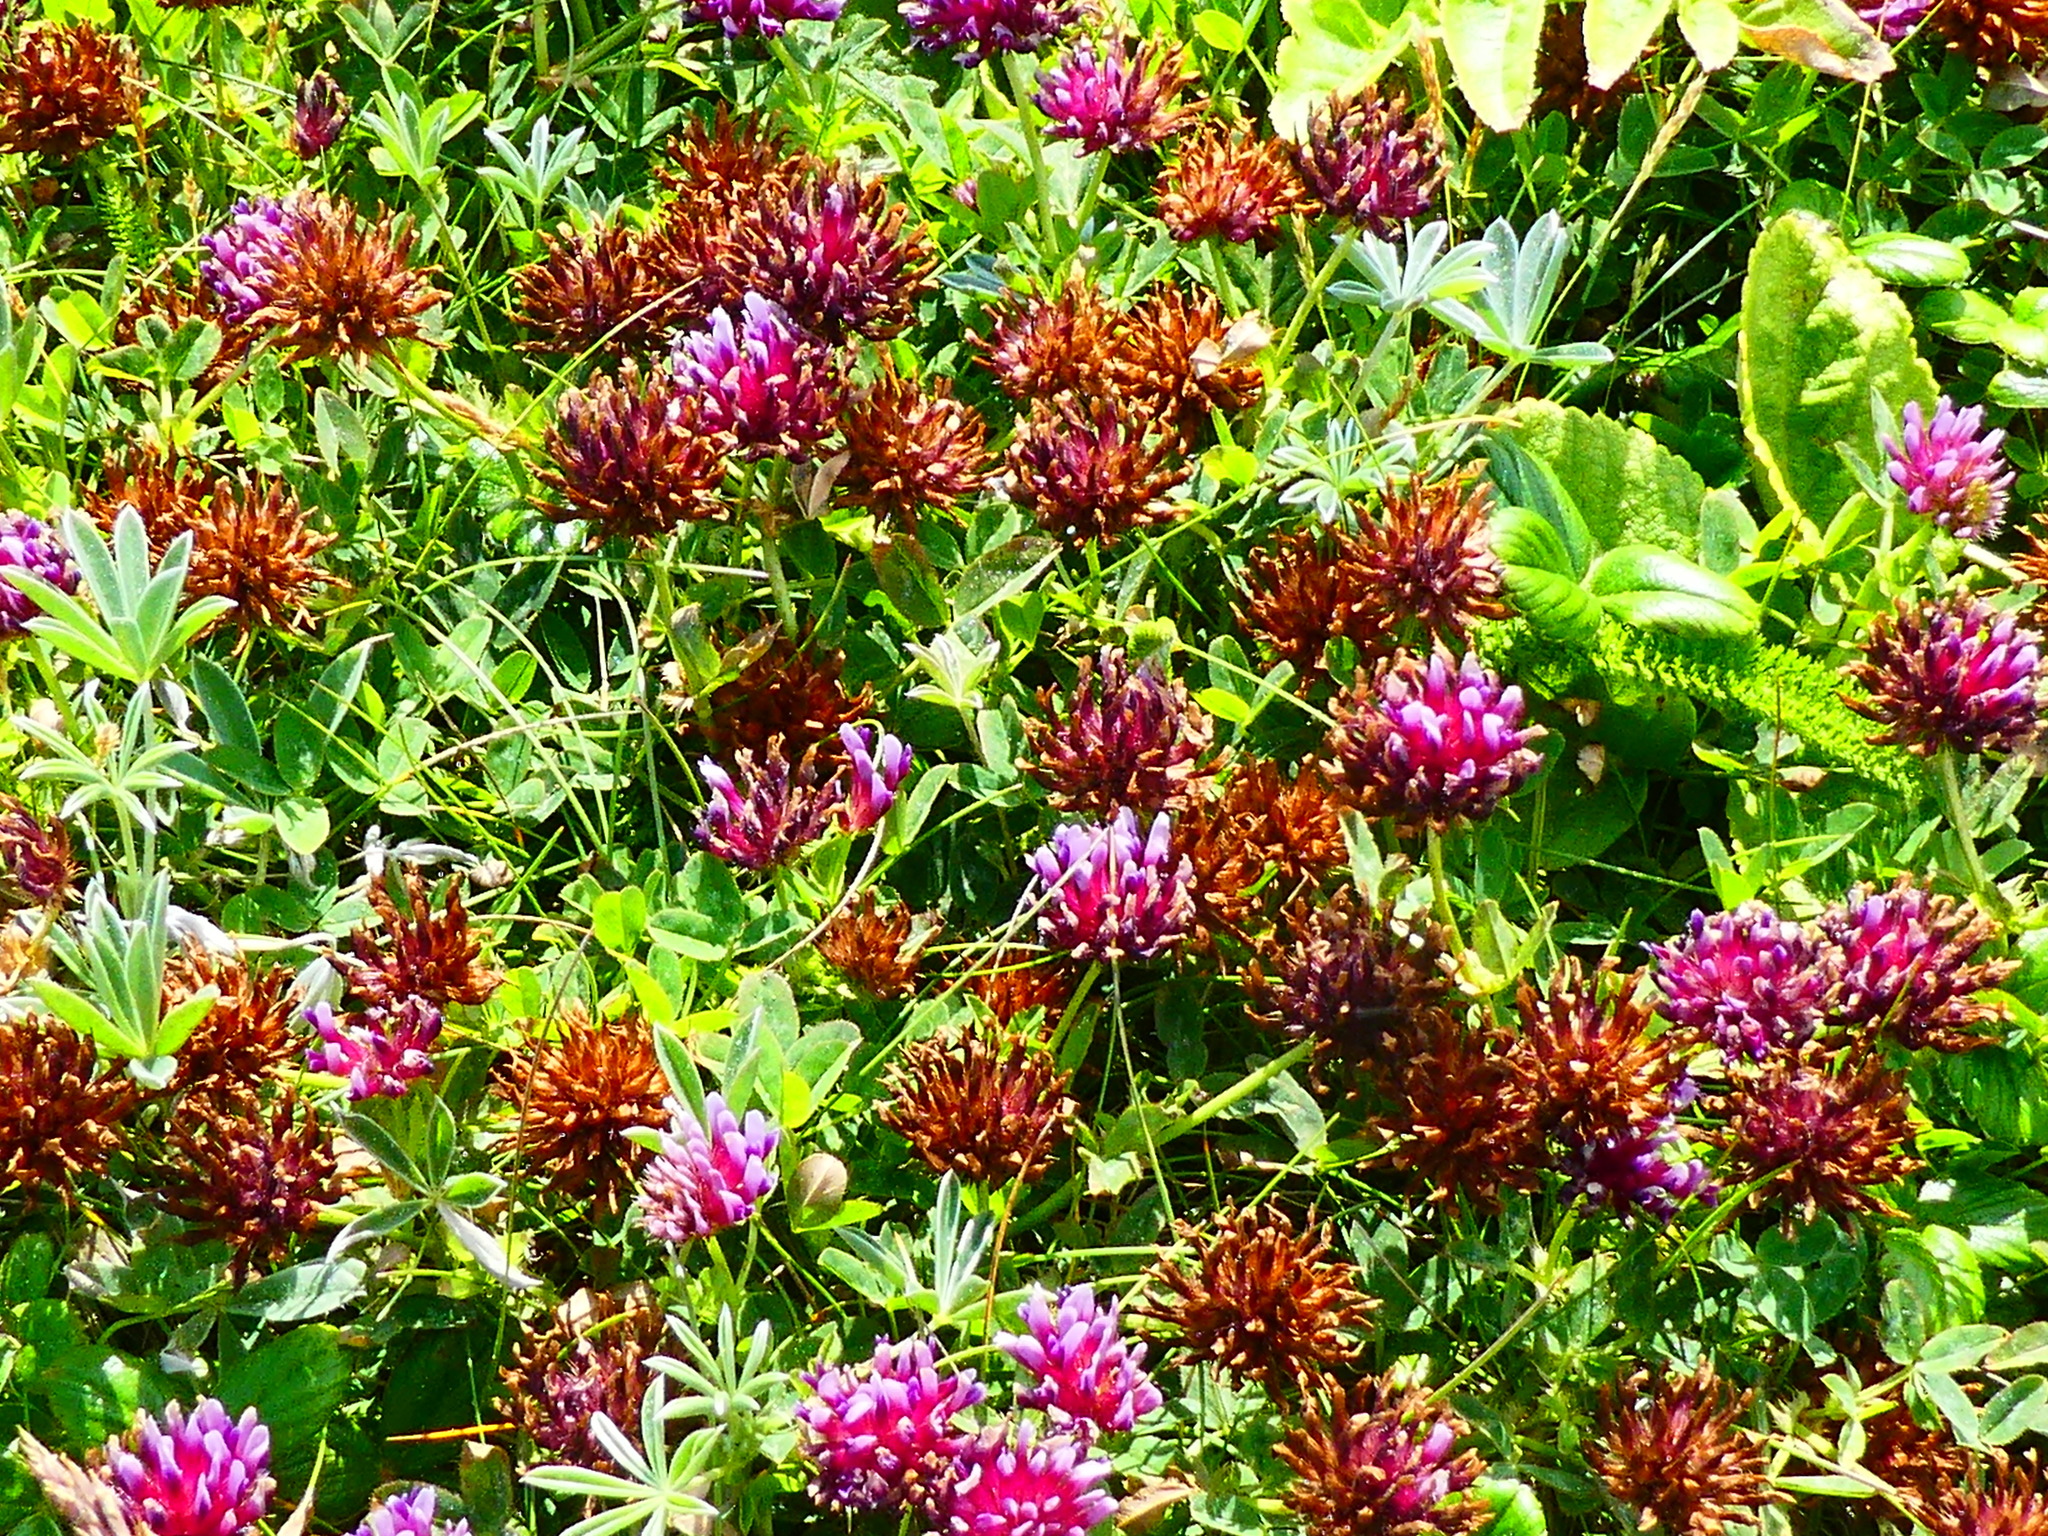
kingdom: Plantae
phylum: Tracheophyta
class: Magnoliopsida
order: Fabales
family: Fabaceae
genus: Trifolium
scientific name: Trifolium wormskioldii
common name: Springbank clover
